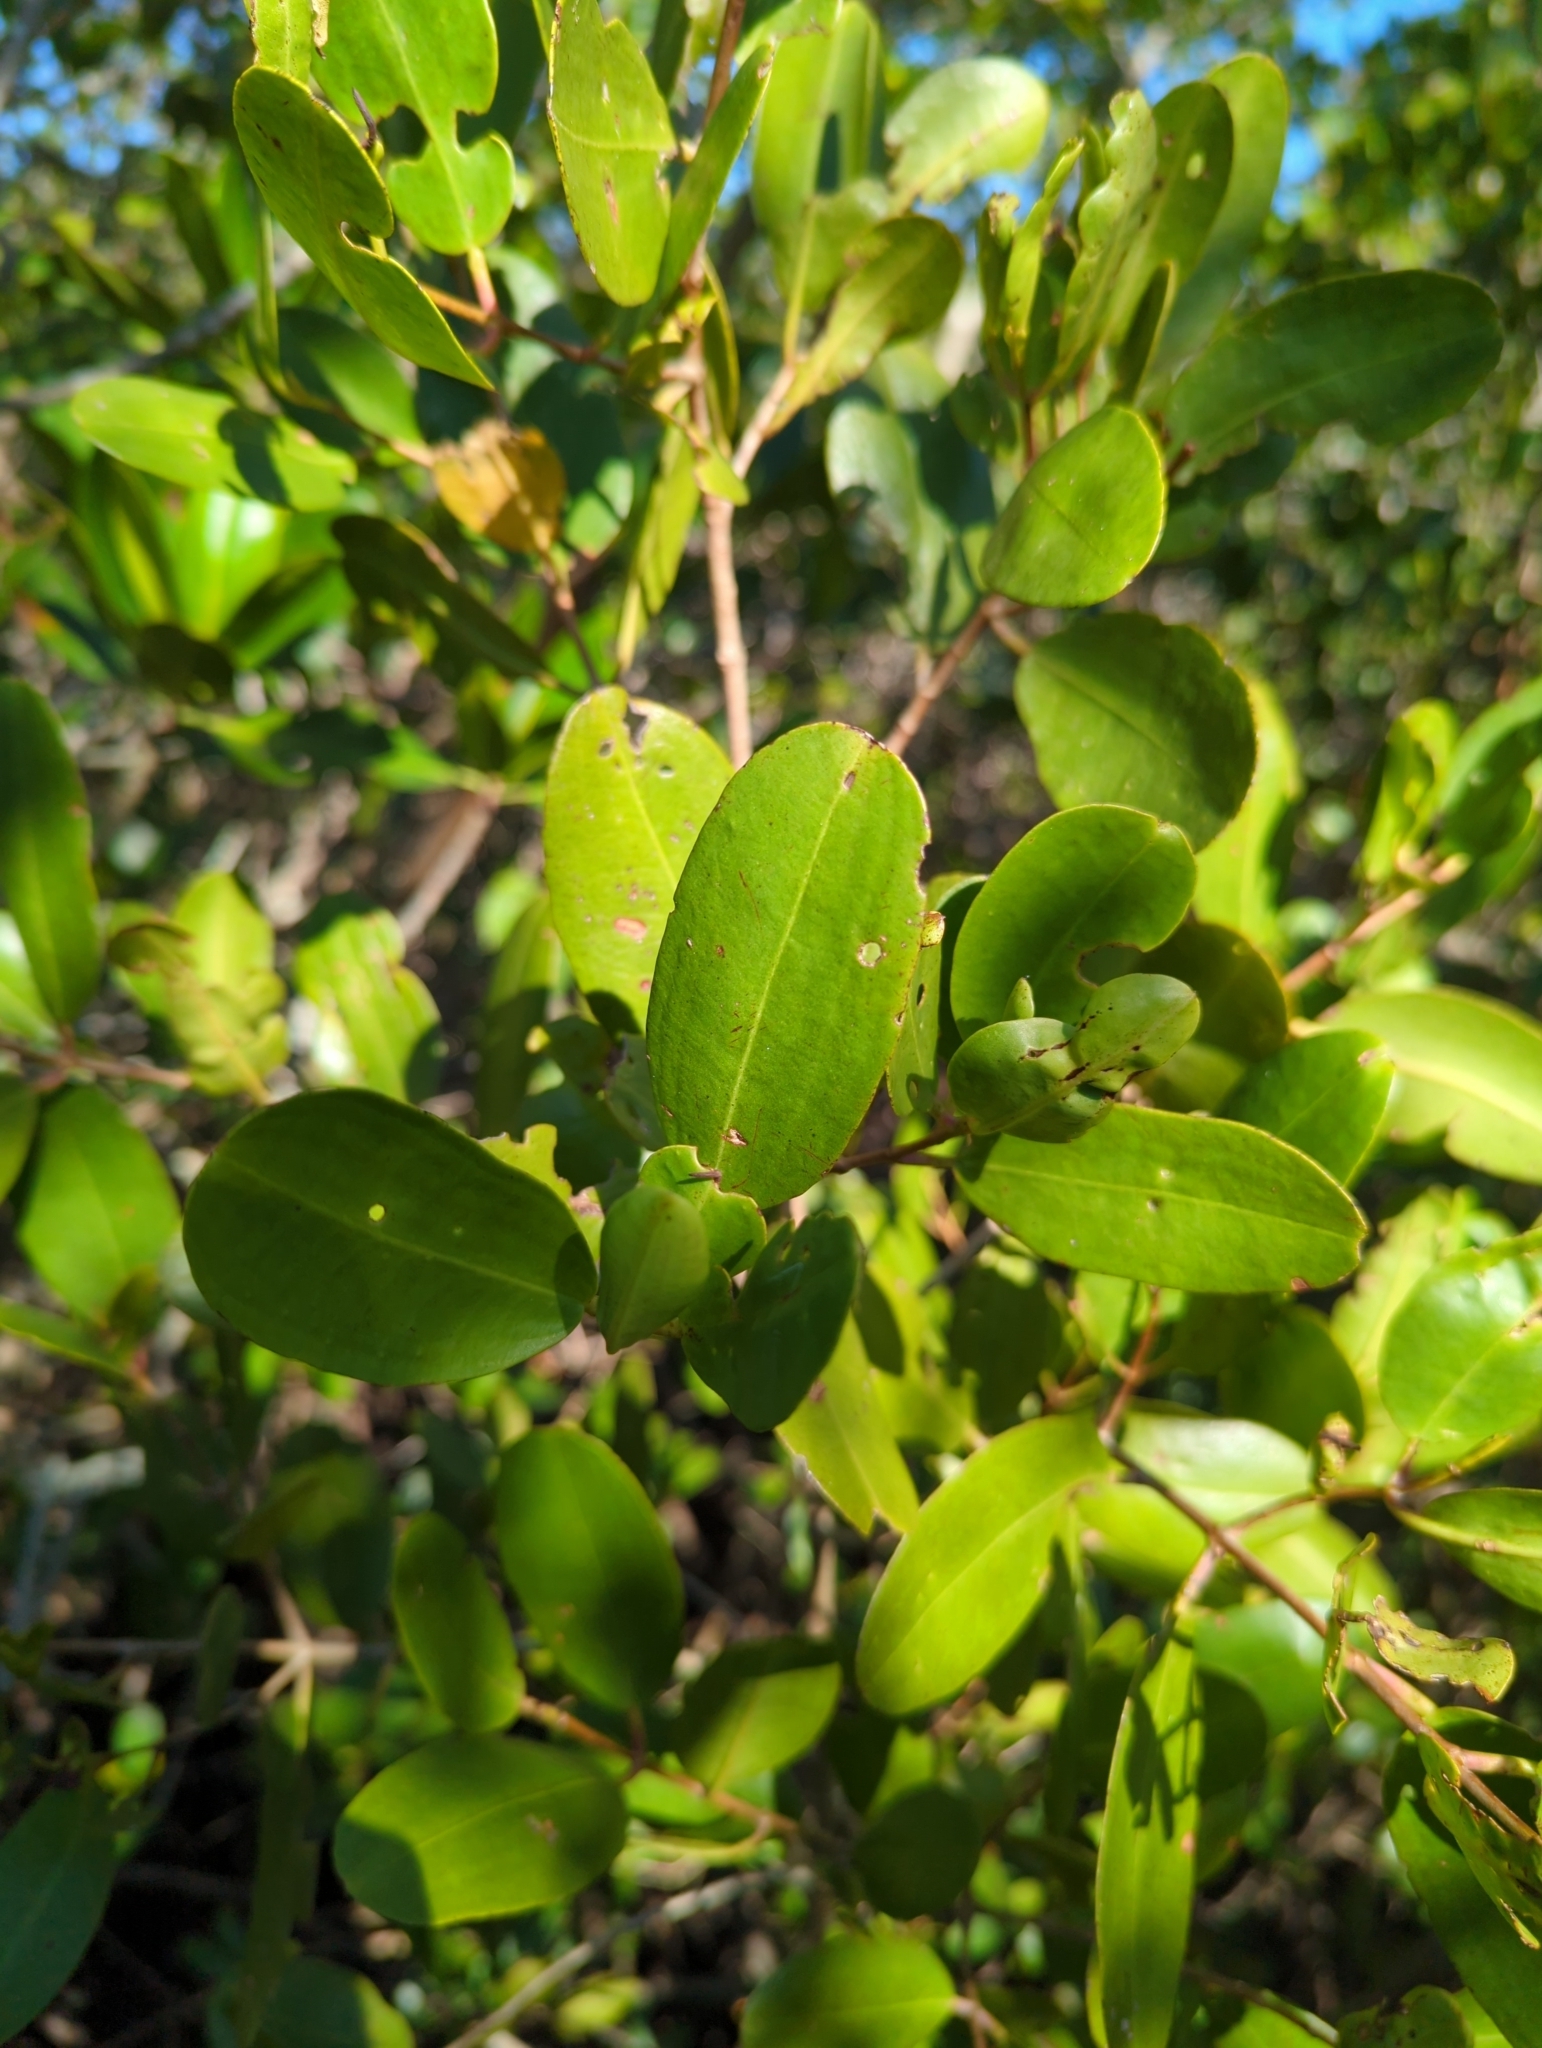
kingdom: Plantae
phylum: Tracheophyta
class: Magnoliopsida
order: Myrtales
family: Combretaceae
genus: Laguncularia
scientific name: Laguncularia racemosa
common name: White mangrove
